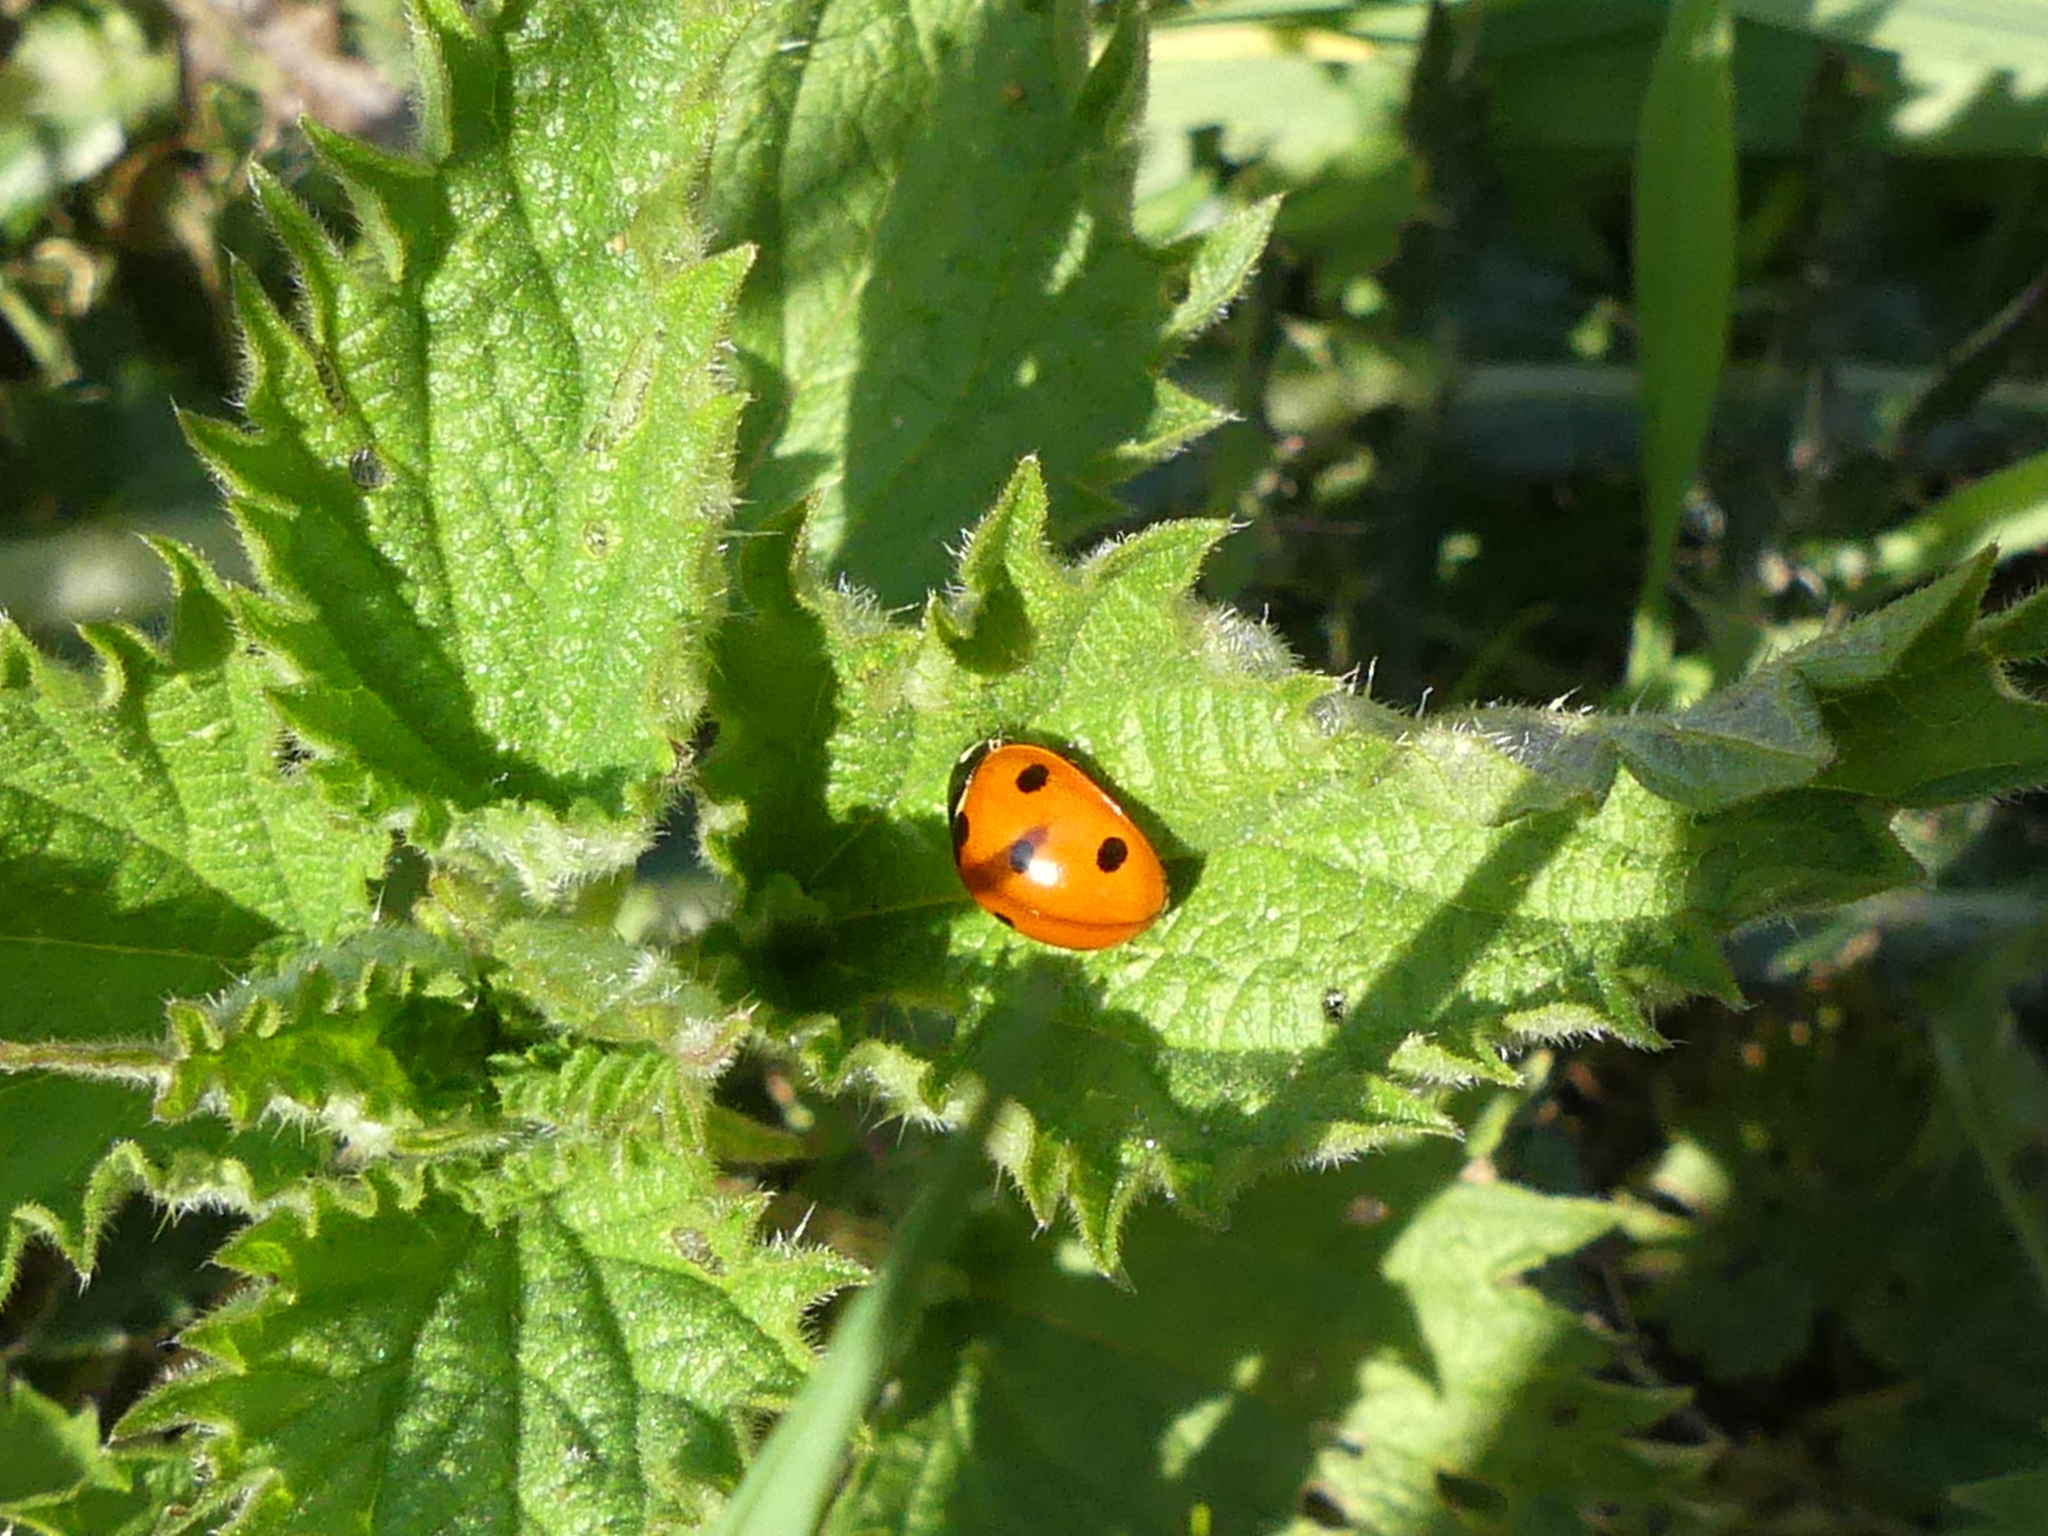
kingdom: Animalia
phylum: Arthropoda
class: Insecta
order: Coleoptera
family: Coccinellidae
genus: Coccinella
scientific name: Coccinella septempunctata
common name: Sevenspotted lady beetle
